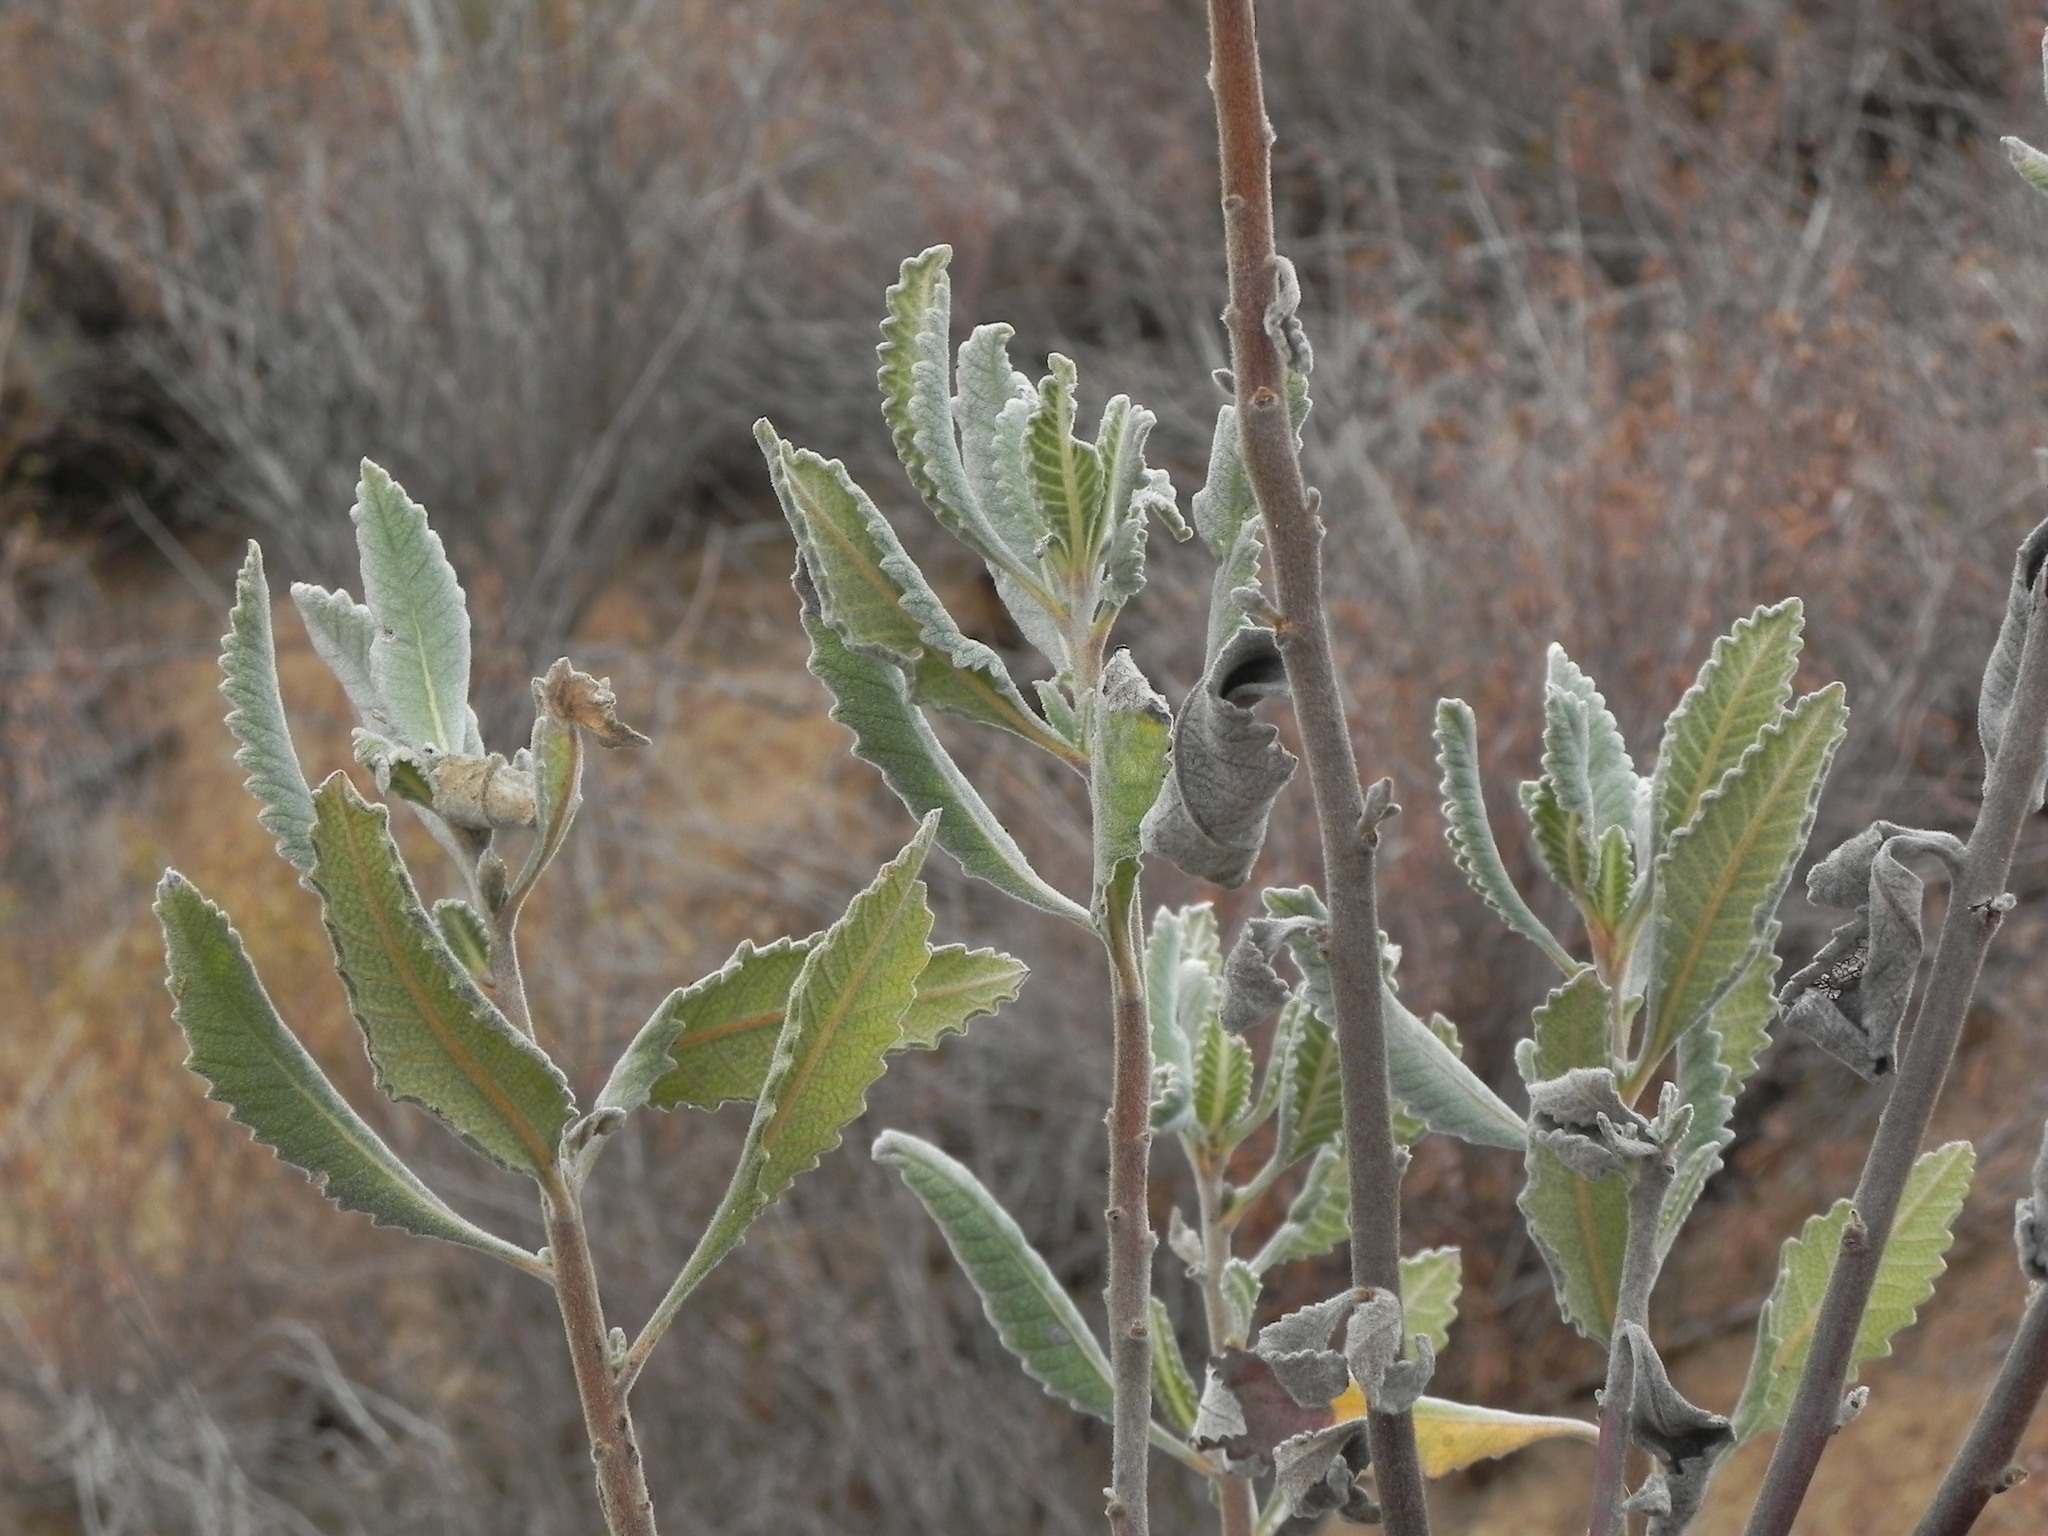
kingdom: Plantae
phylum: Tracheophyta
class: Magnoliopsida
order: Boraginales
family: Namaceae
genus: Eriodictyon
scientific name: Eriodictyon crassifolium
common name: Thick-leaf yerba-santa
